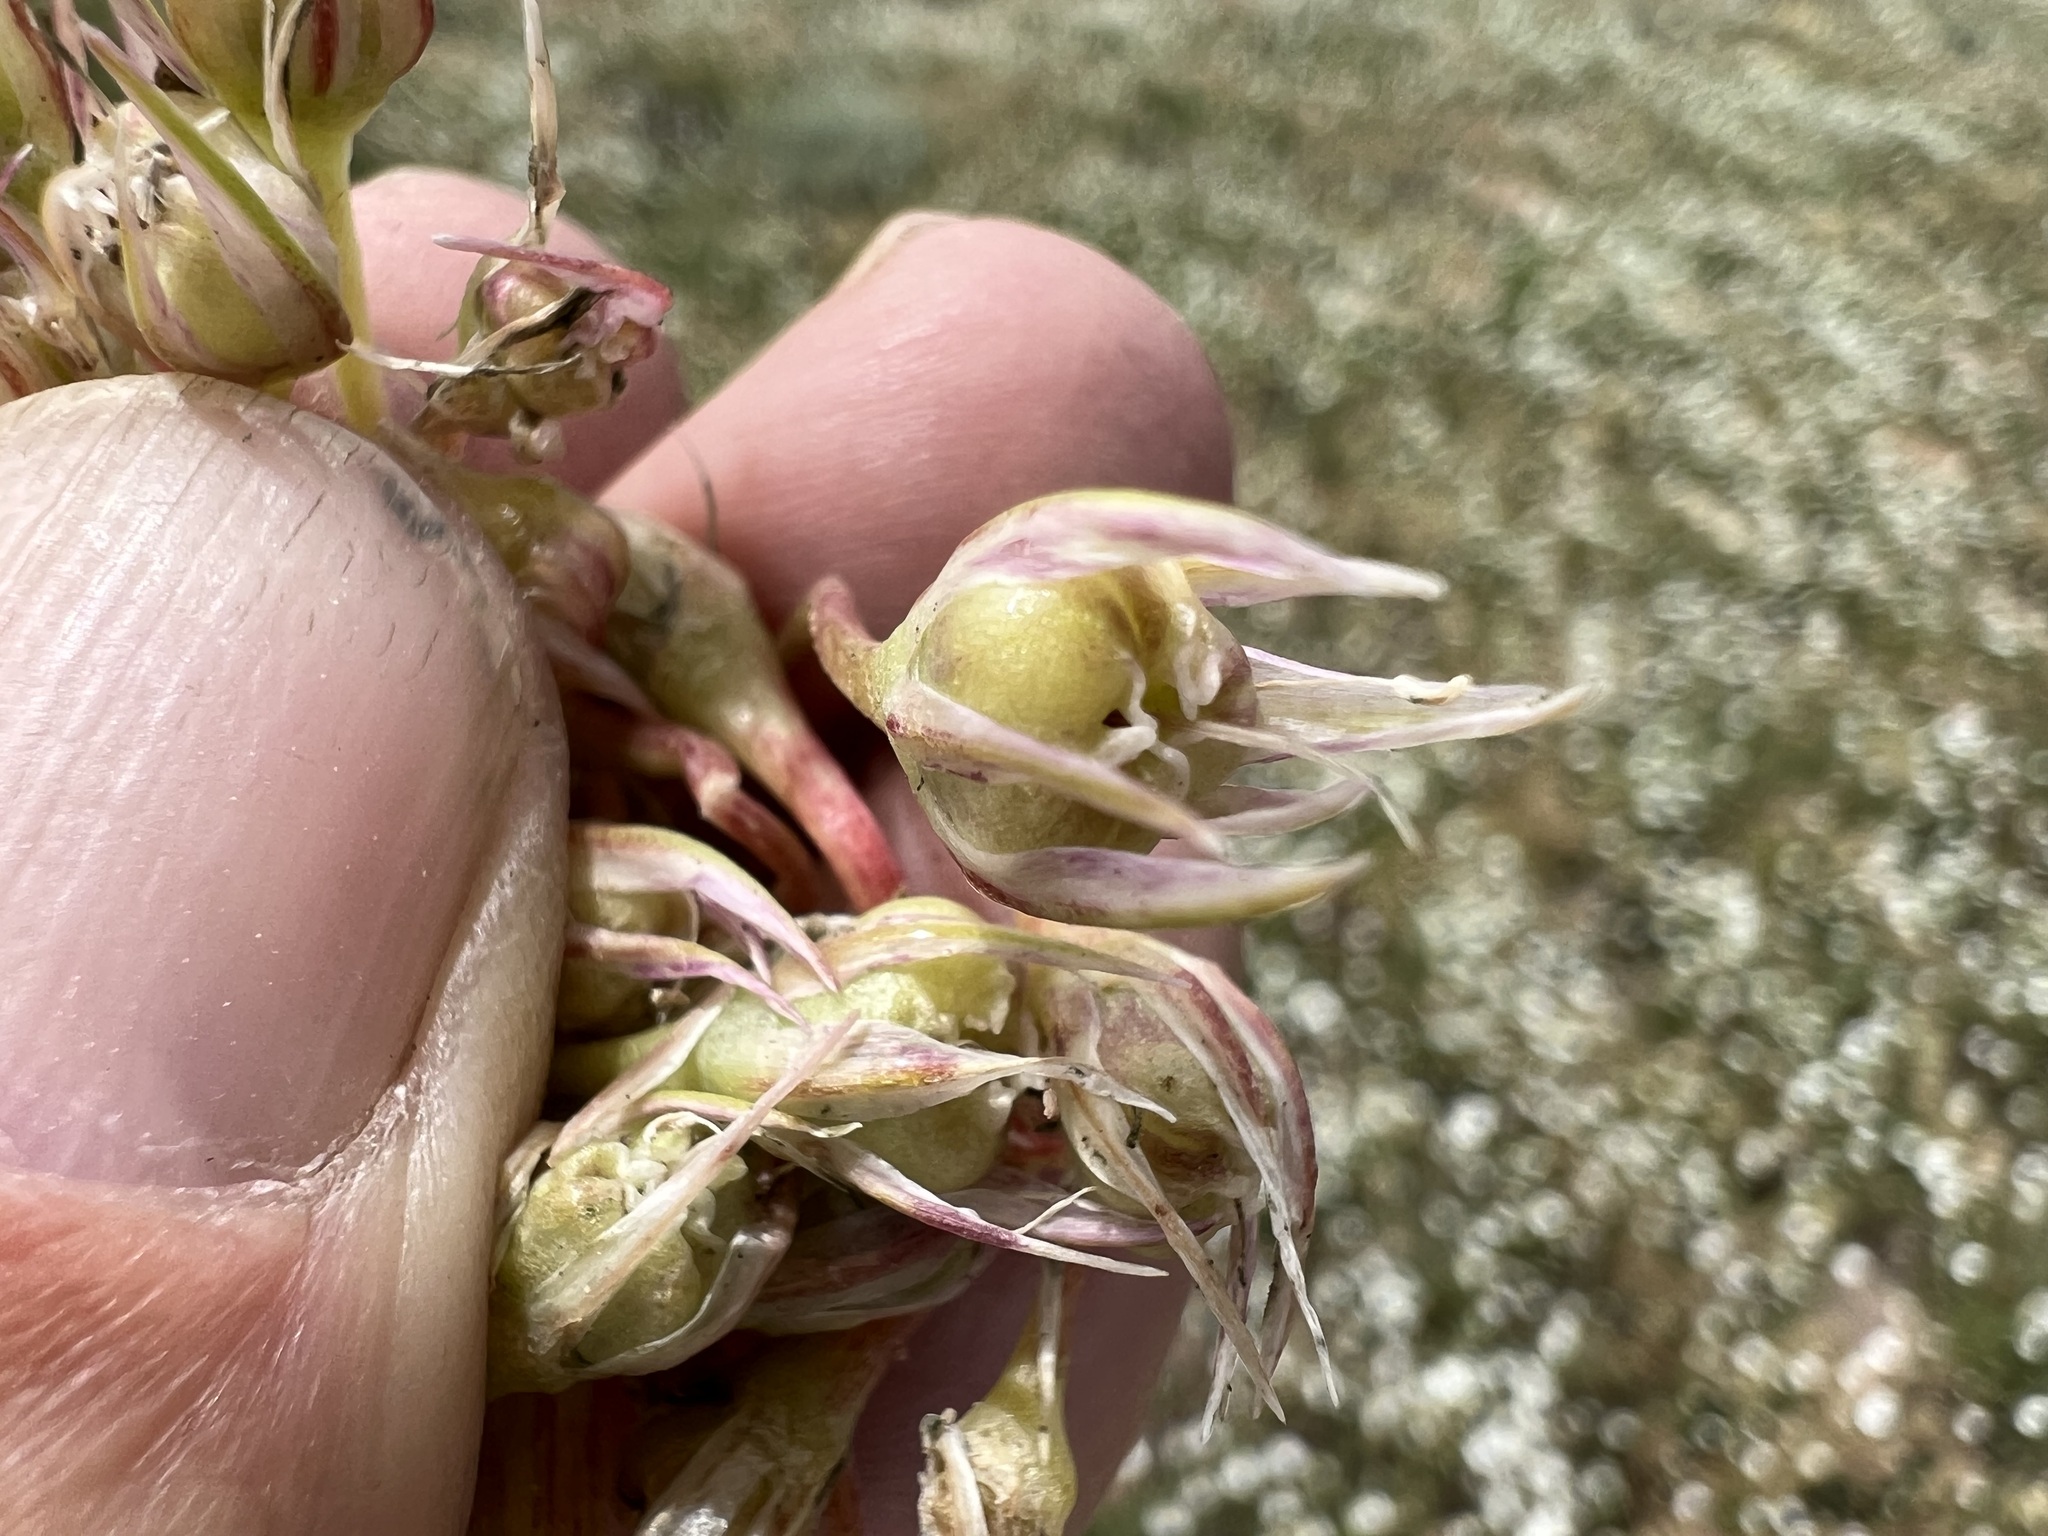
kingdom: Plantae
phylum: Tracheophyta
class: Liliopsida
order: Asparagales
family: Amaryllidaceae
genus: Allium
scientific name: Allium anceps
